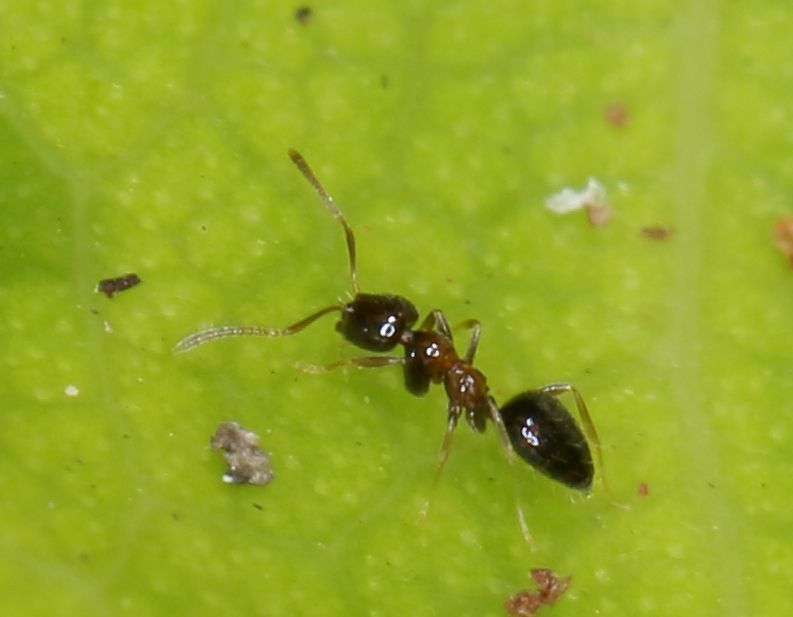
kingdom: Animalia
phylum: Arthropoda
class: Insecta
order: Hymenoptera
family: Formicidae
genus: Plagiolepis
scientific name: Plagiolepis vanderkelleni
